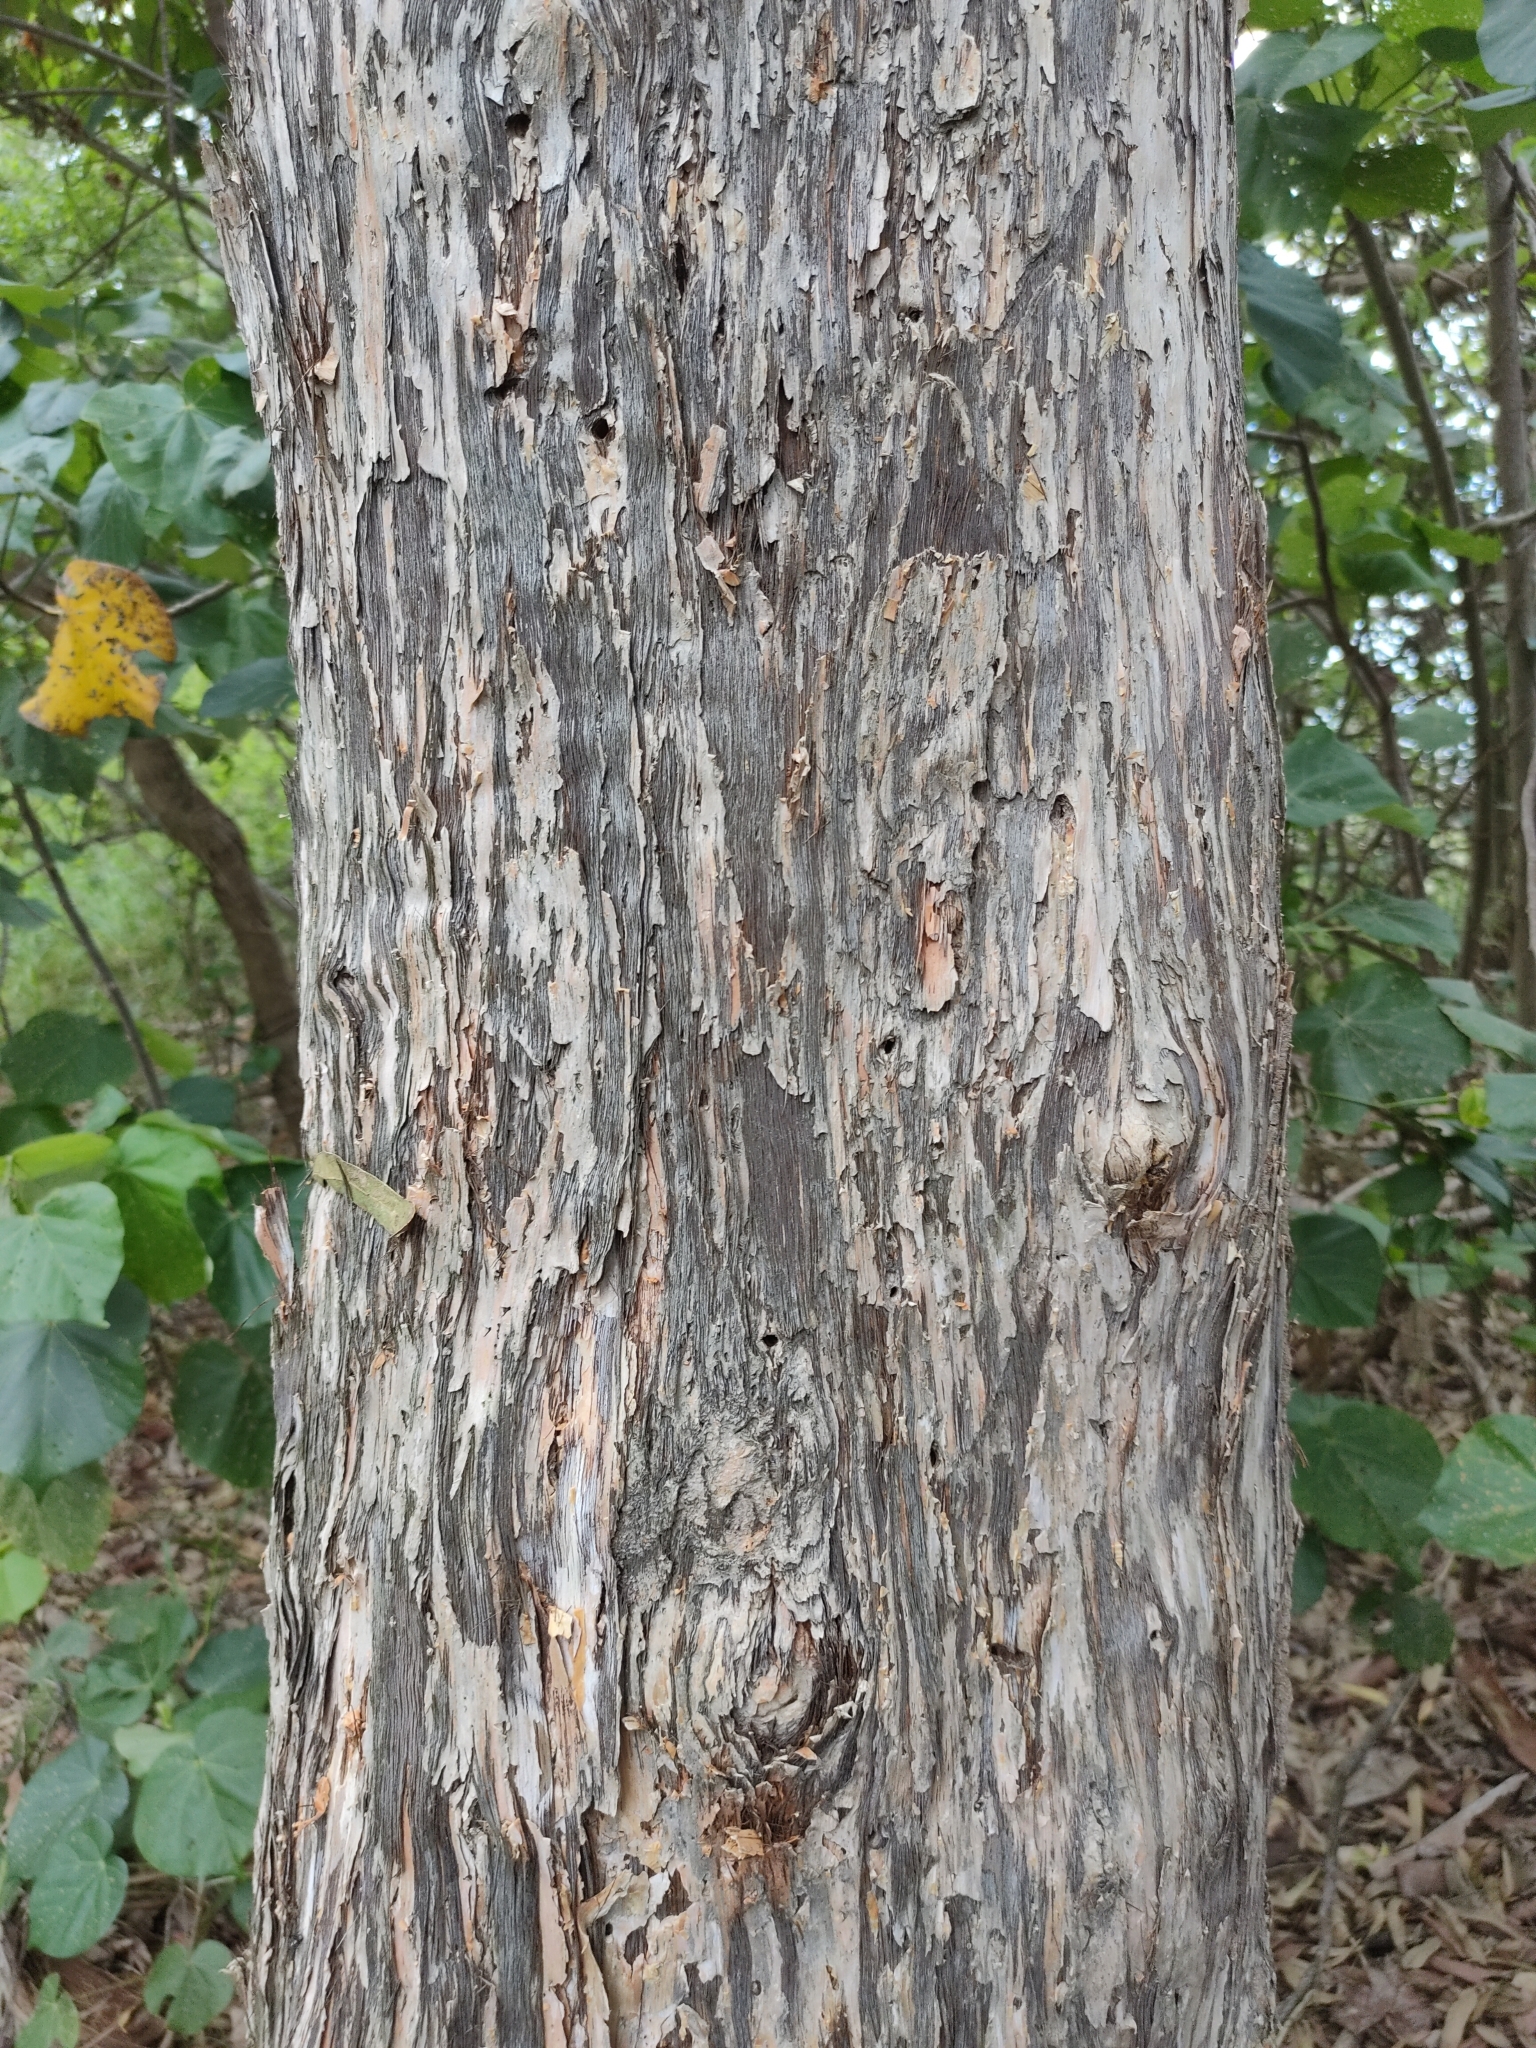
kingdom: Plantae
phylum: Tracheophyta
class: Magnoliopsida
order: Myrtales
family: Myrtaceae
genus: Melaleuca
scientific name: Melaleuca dealbata
